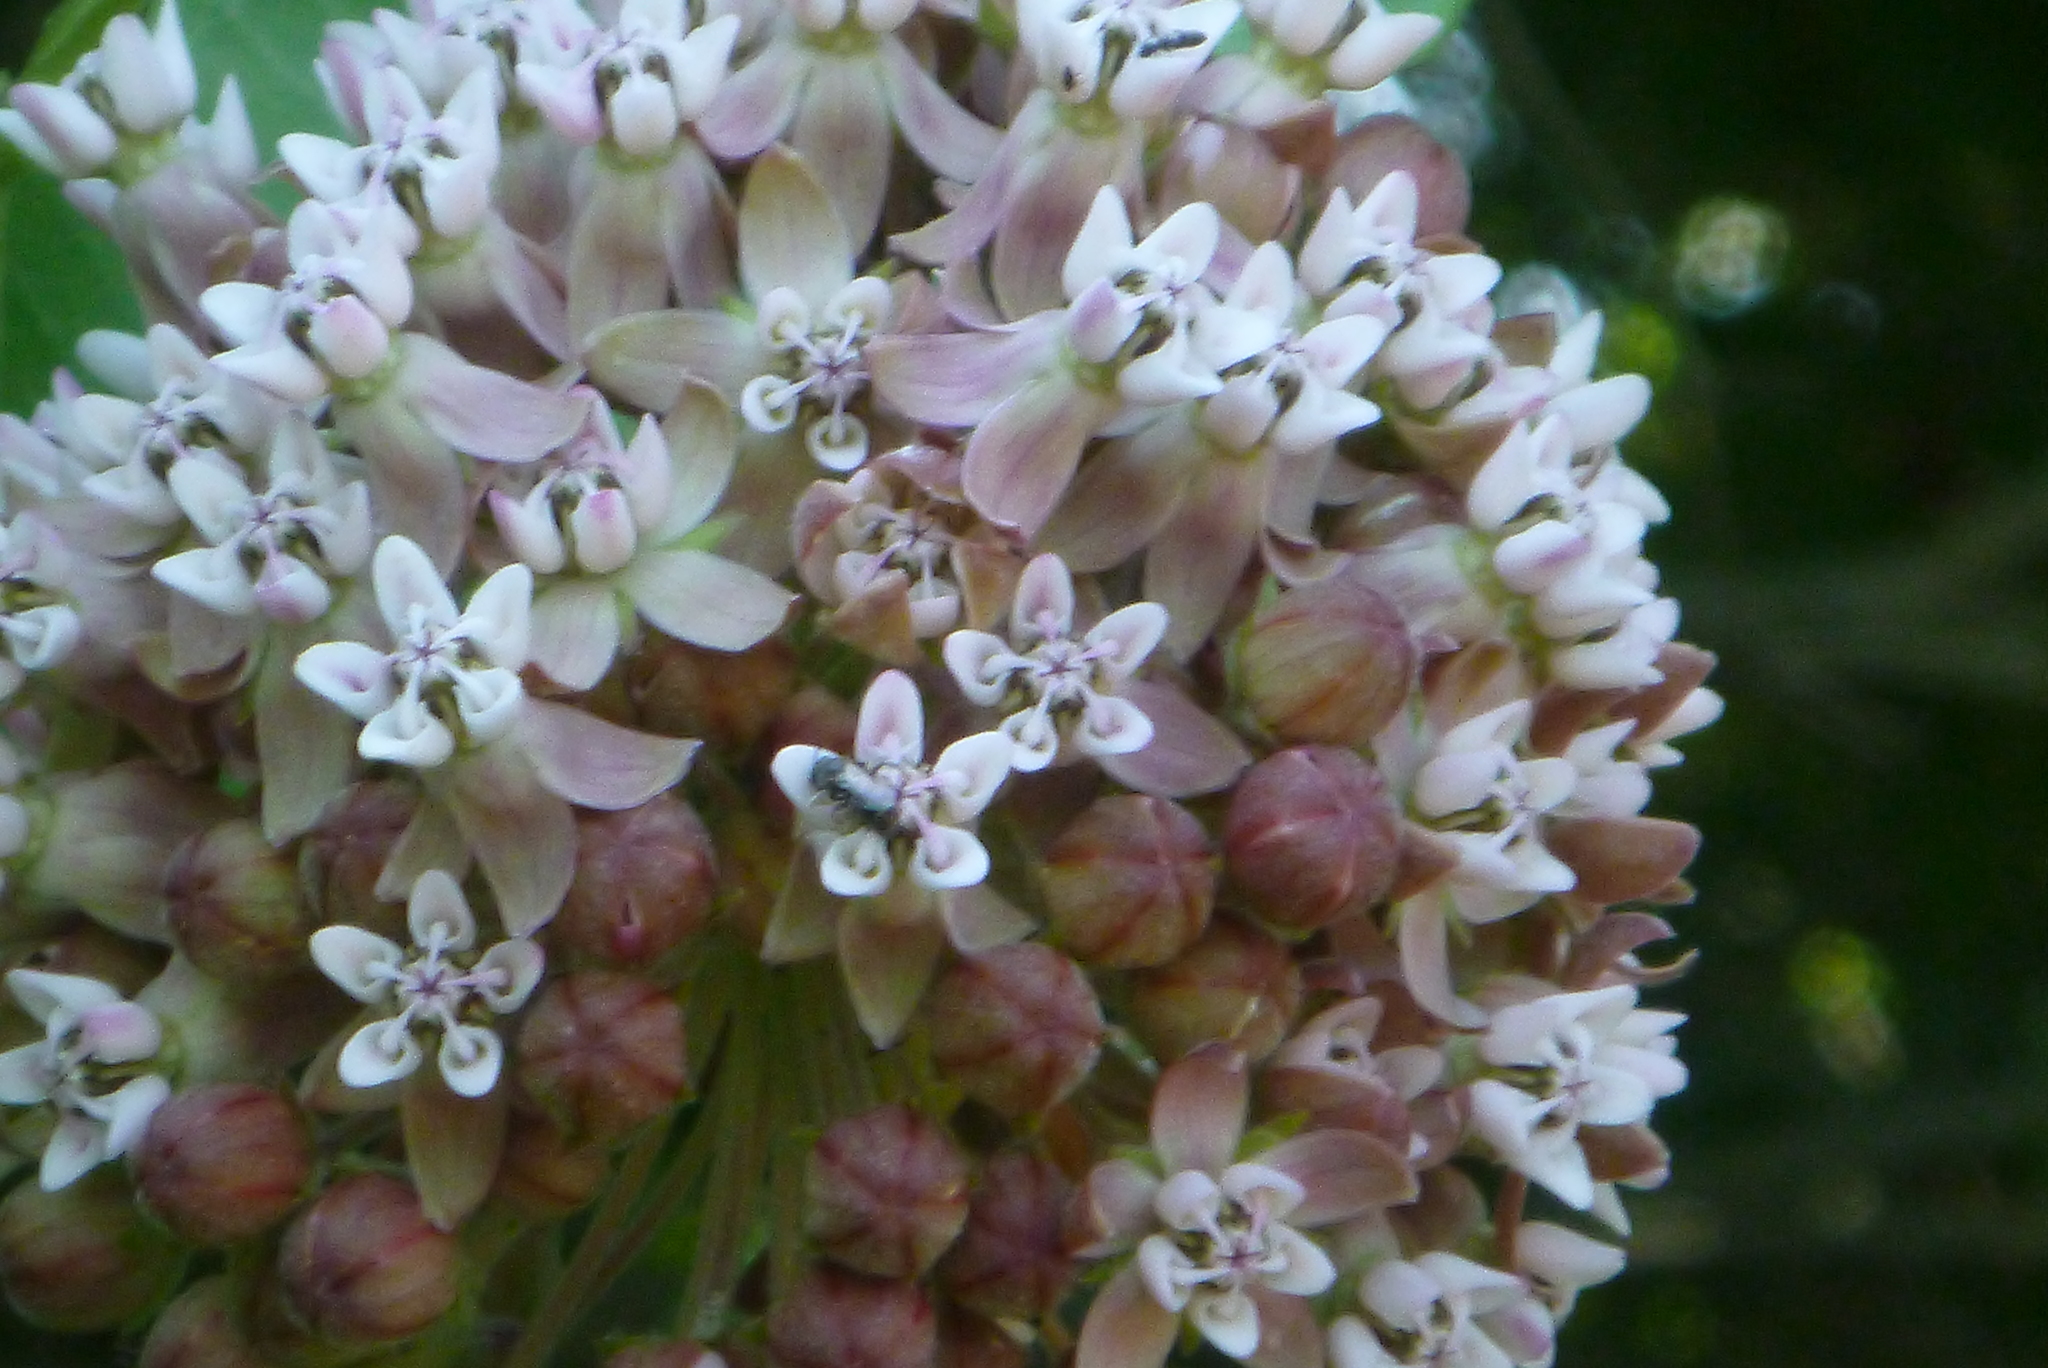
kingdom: Plantae
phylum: Tracheophyta
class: Magnoliopsida
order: Gentianales
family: Apocynaceae
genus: Asclepias
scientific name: Asclepias syriaca
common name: Common milkweed
